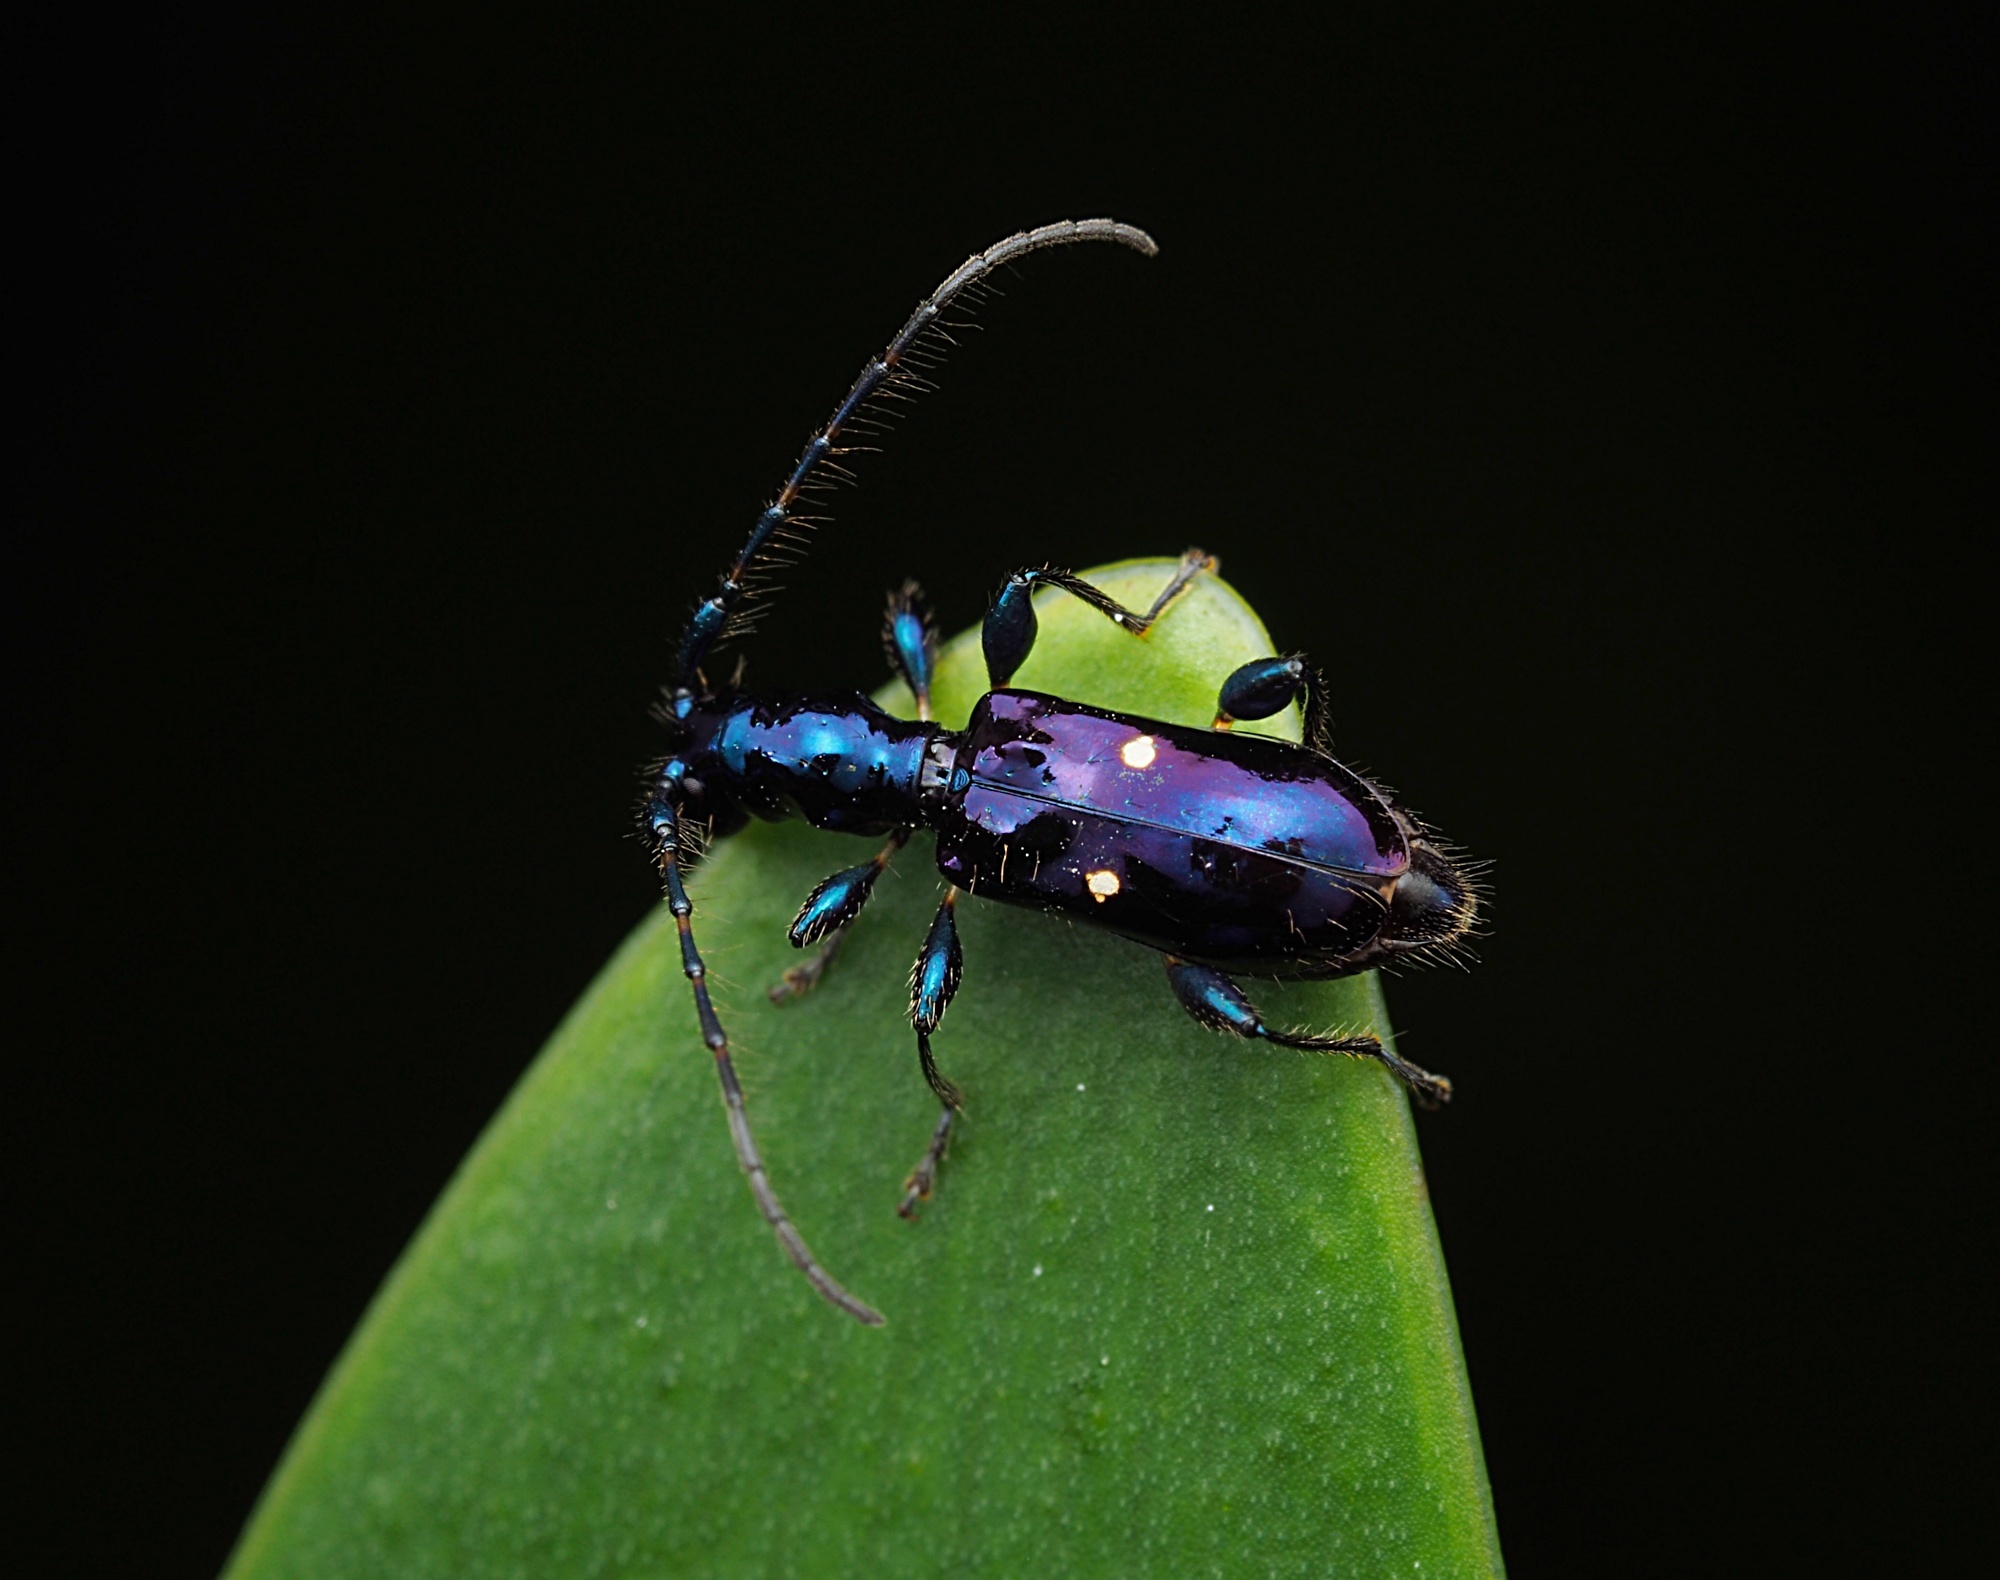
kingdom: Animalia
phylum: Arthropoda
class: Insecta
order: Coleoptera
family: Cerambycidae
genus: Zorion
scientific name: Zorion batesi
